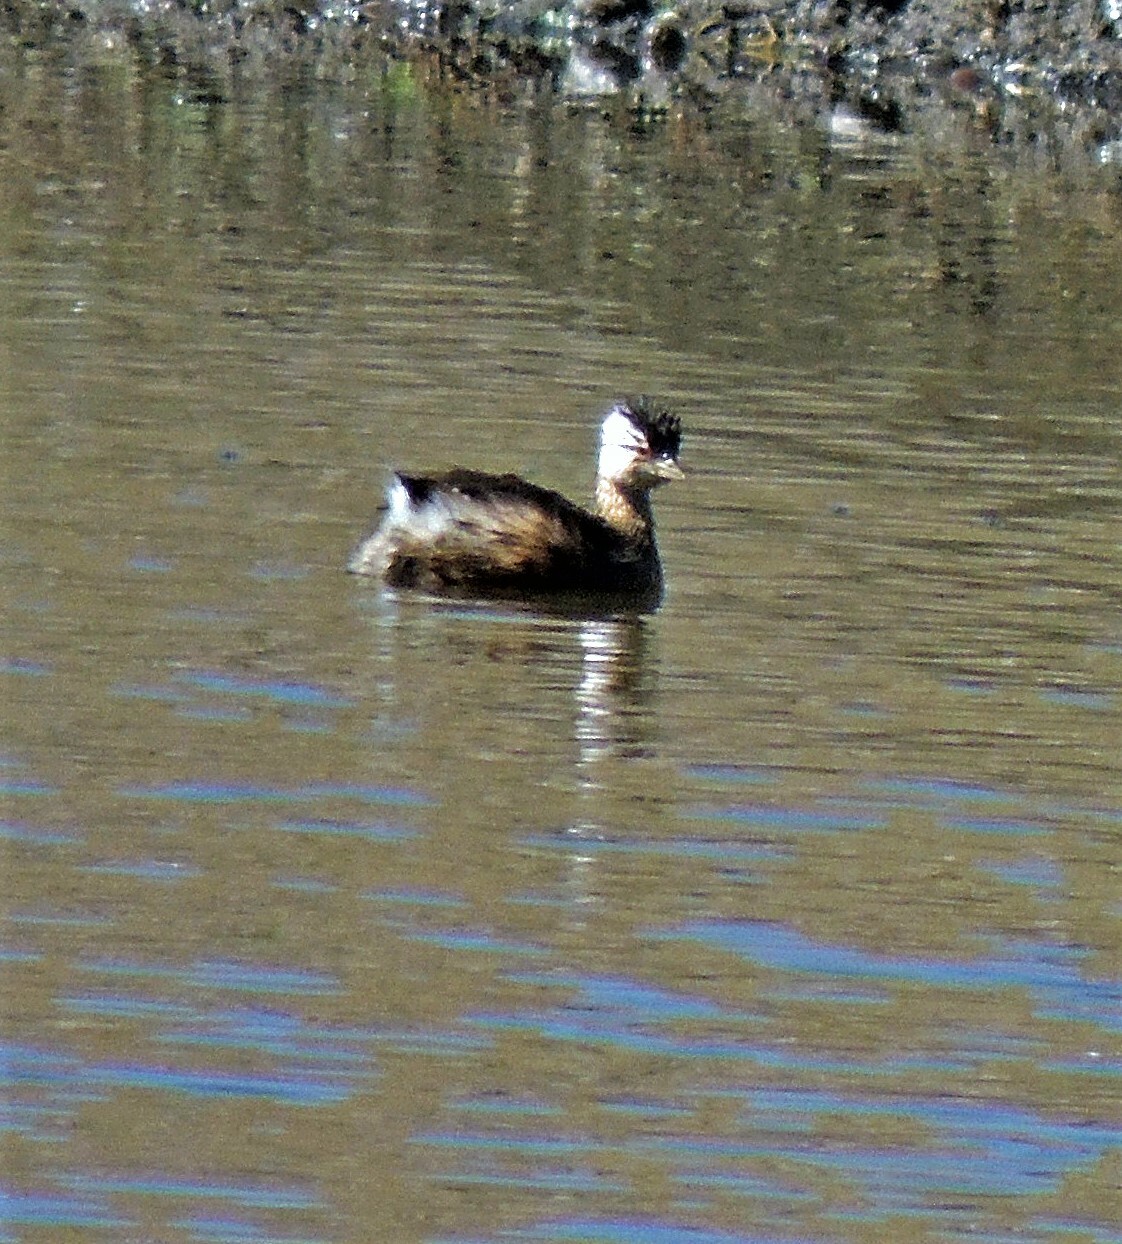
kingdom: Animalia
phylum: Chordata
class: Aves
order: Podicipediformes
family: Podicipedidae
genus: Rollandia
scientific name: Rollandia rolland
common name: White-tufted grebe
